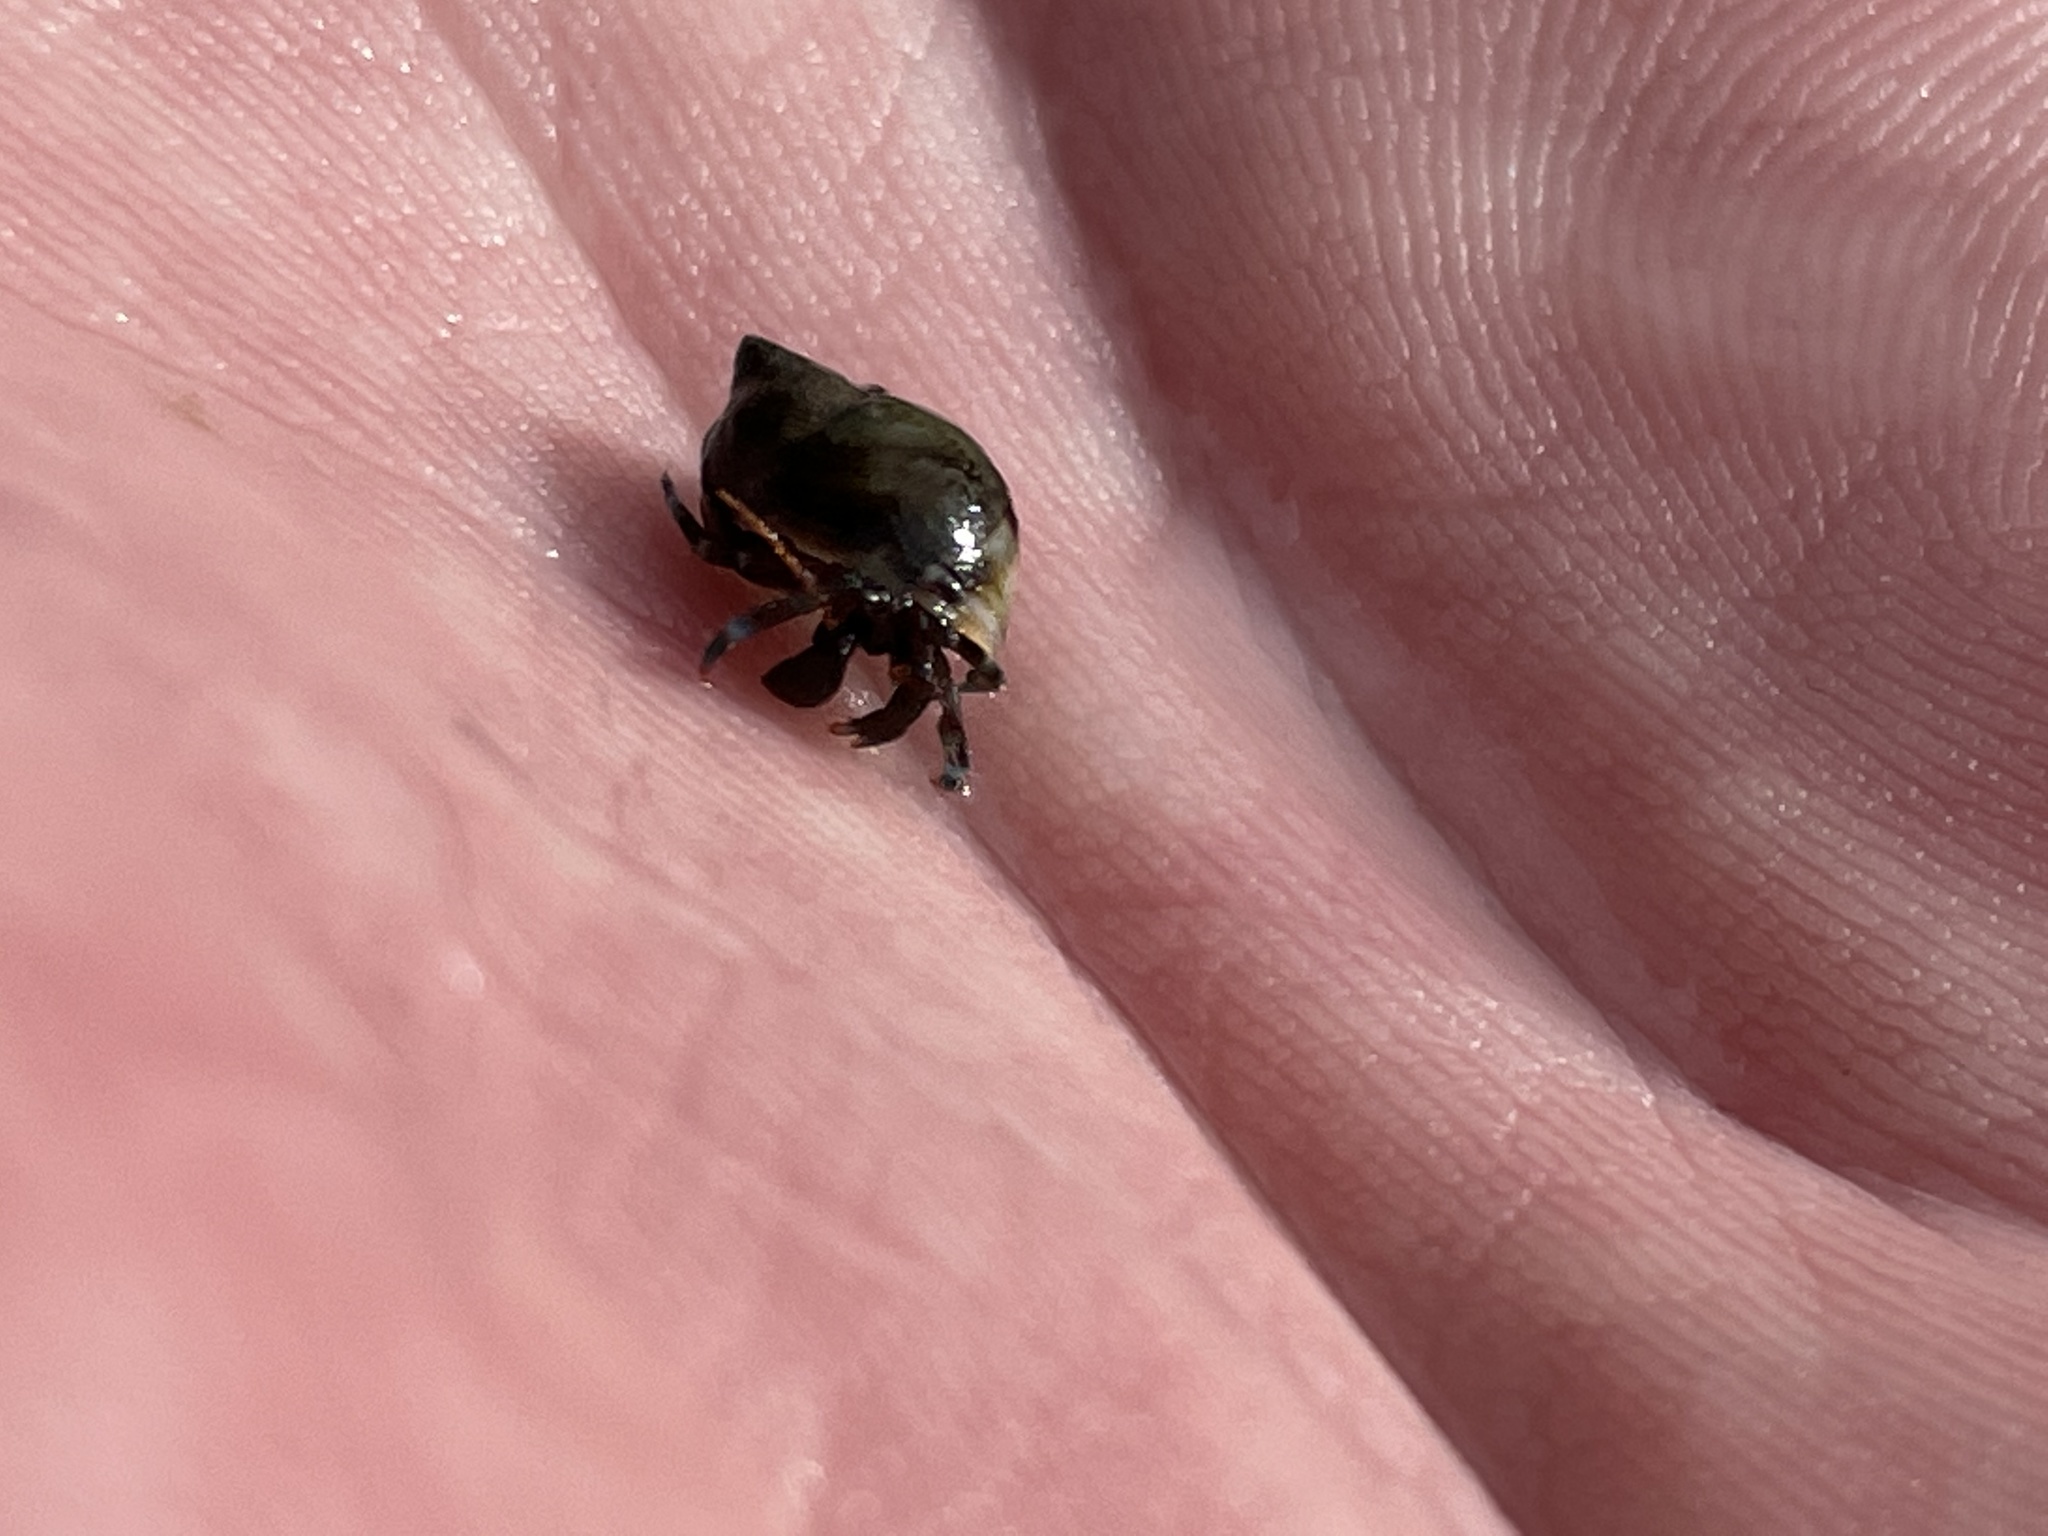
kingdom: Animalia
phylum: Arthropoda
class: Malacostraca
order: Decapoda
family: Paguridae
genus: Pagurus
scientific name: Pagurus samuelis
